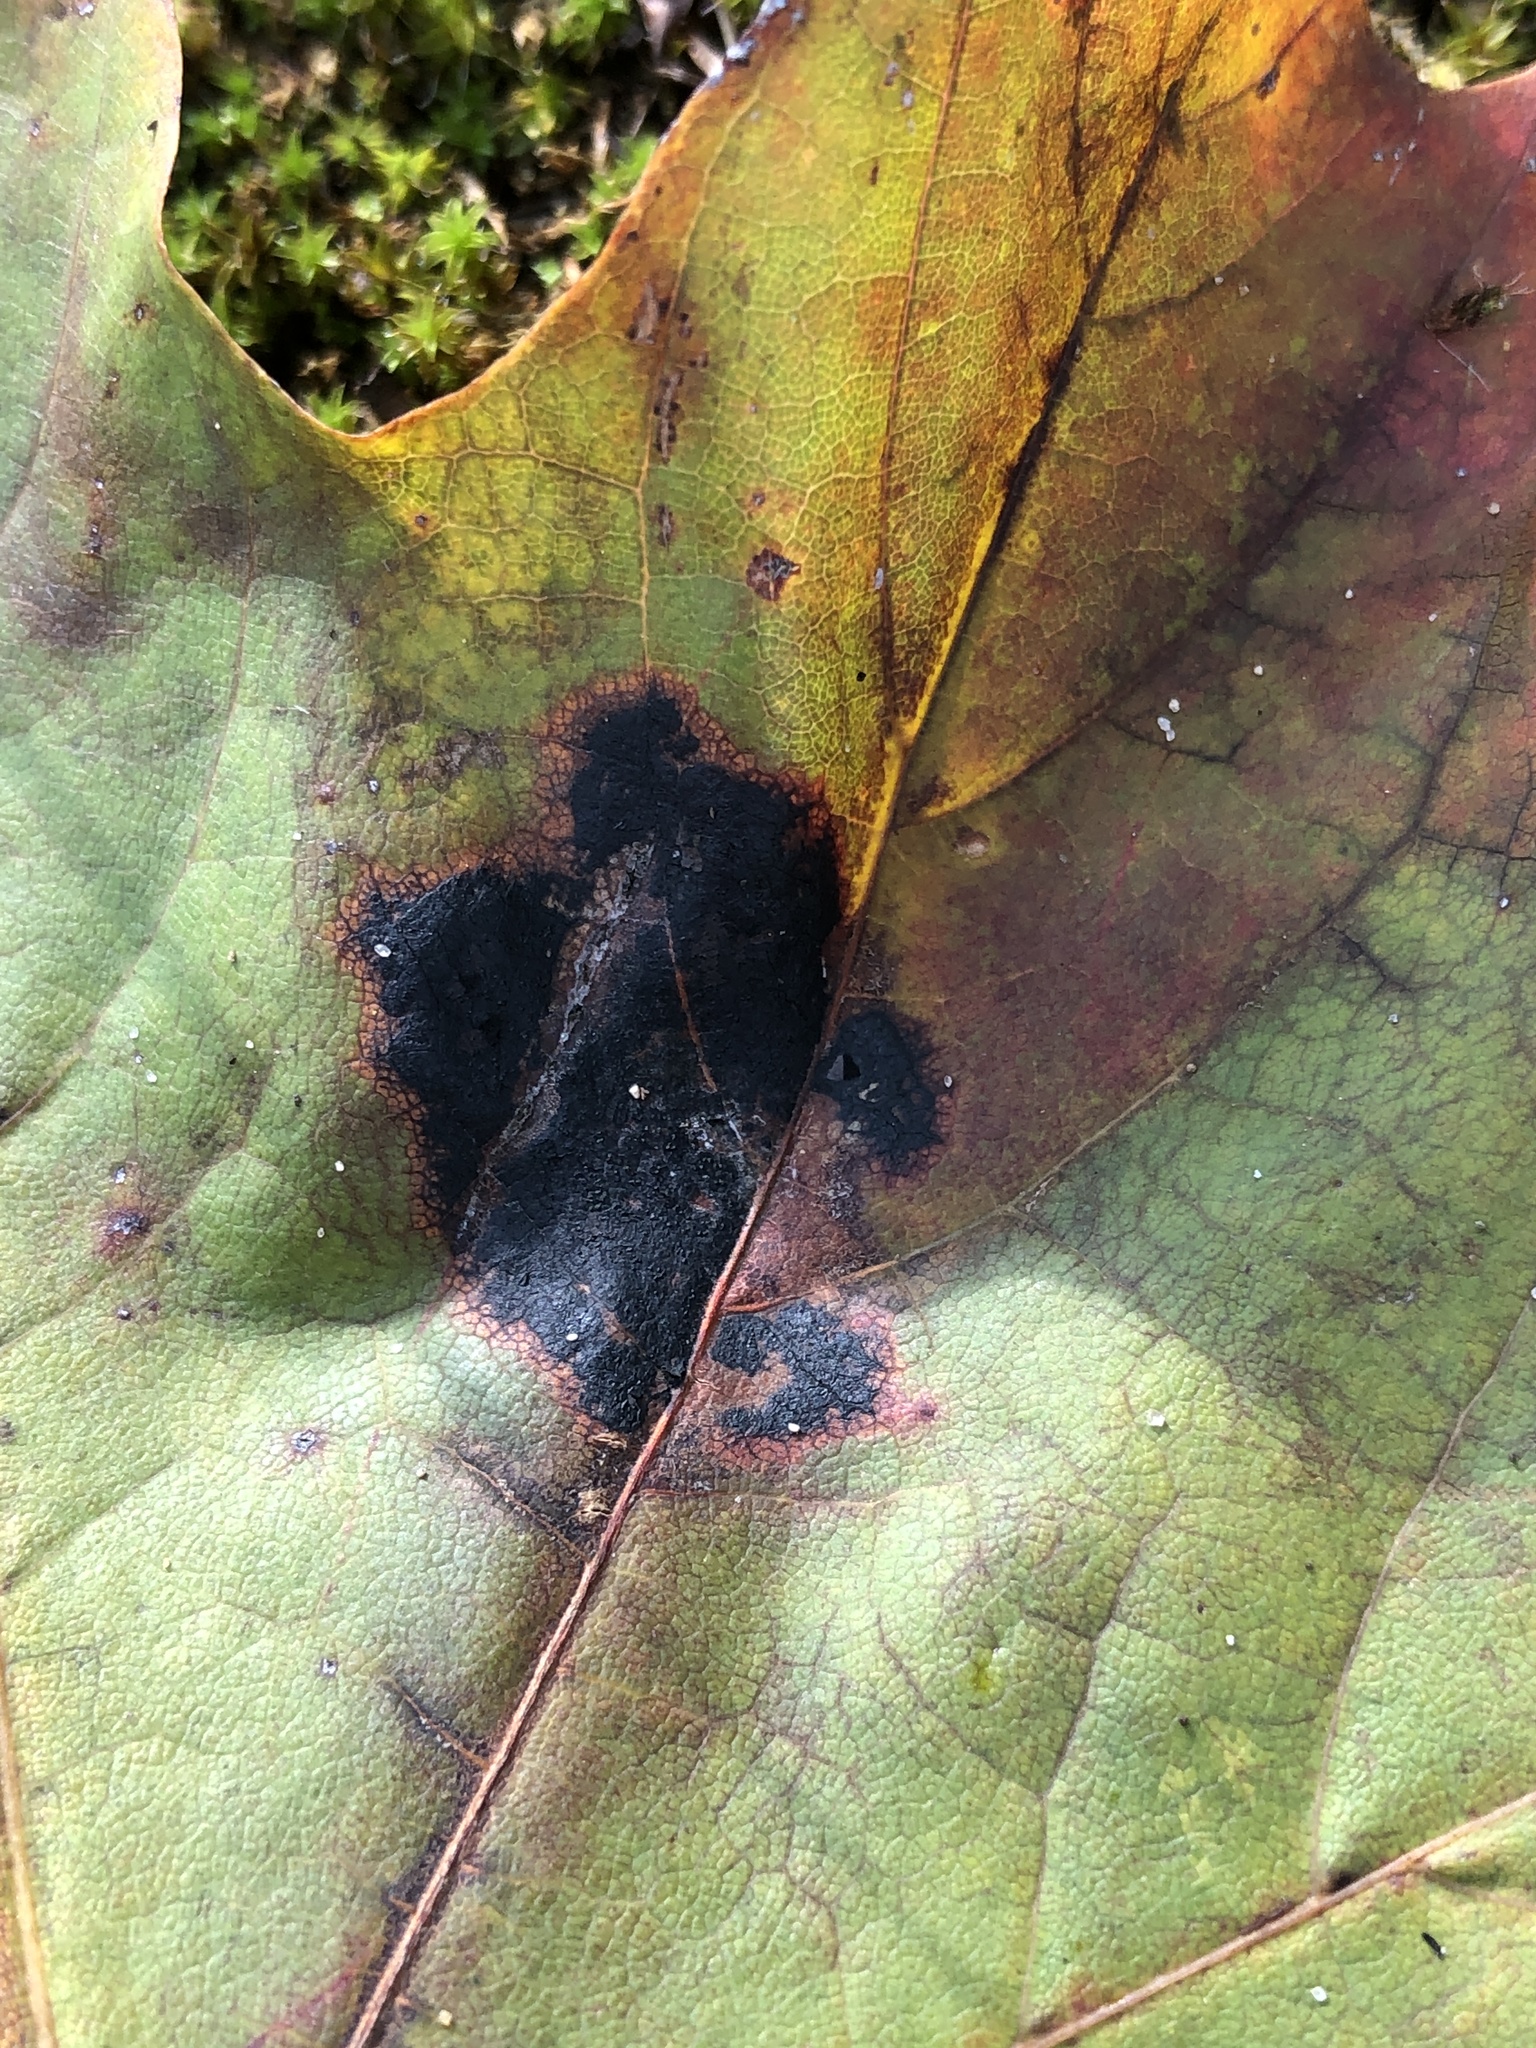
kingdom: Fungi
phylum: Ascomycota
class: Leotiomycetes
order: Rhytismatales
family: Rhytismataceae
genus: Rhytisma
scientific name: Rhytisma acerinum
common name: European tar spot
